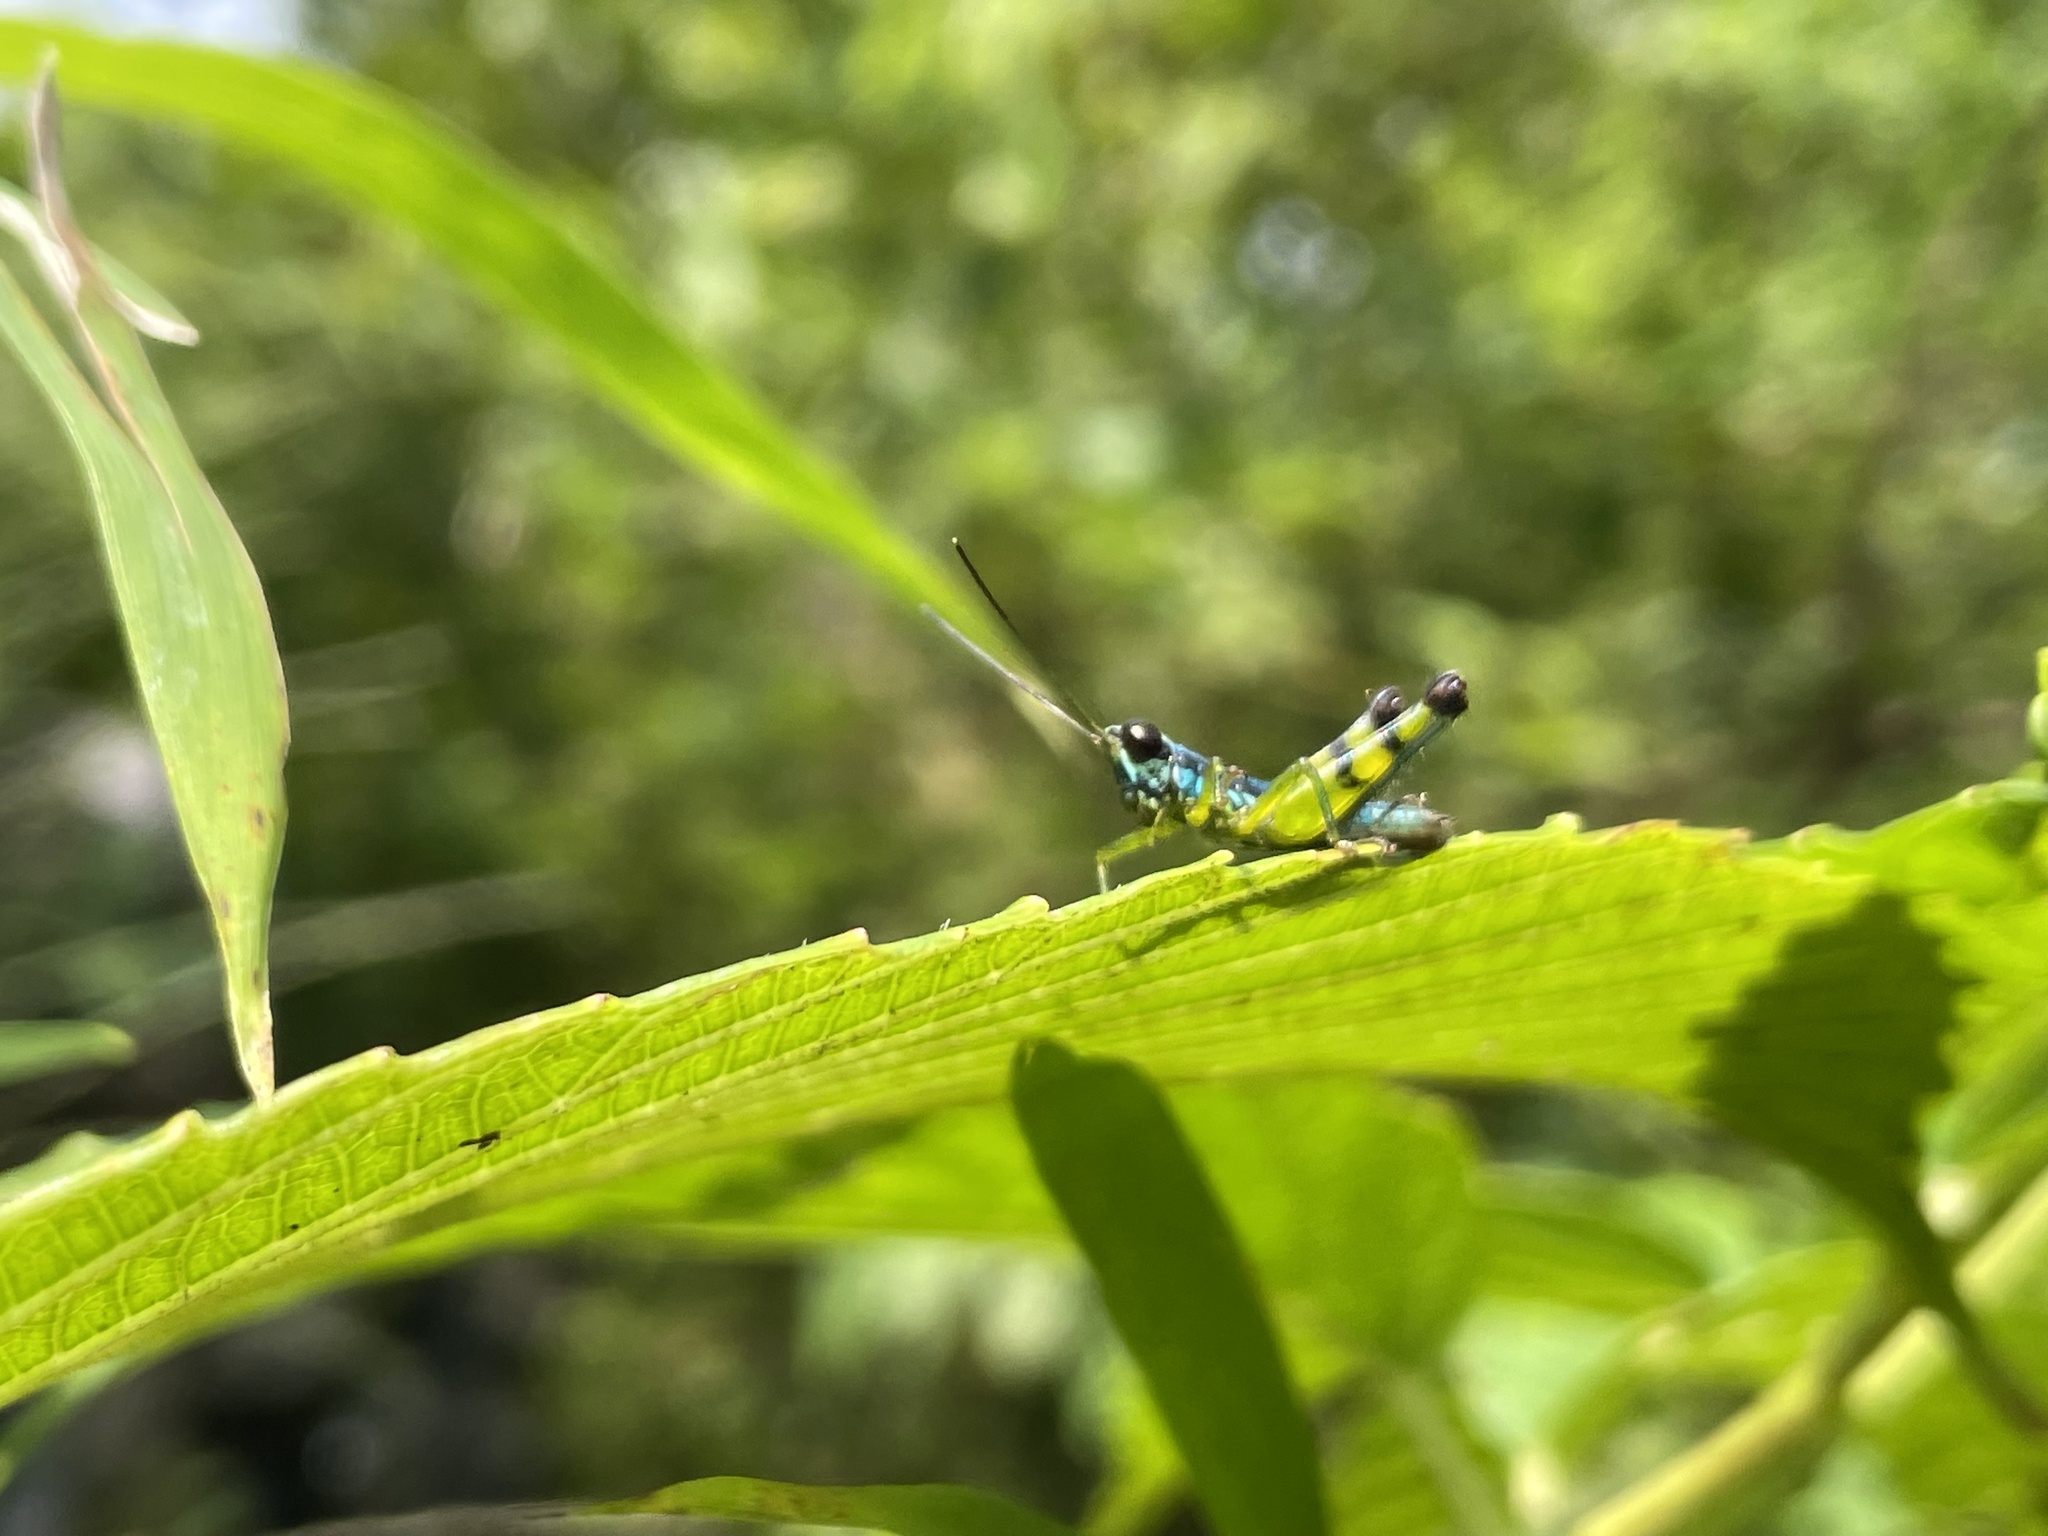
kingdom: Animalia
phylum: Arthropoda
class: Insecta
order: Orthoptera
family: Acrididae
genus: Genimen
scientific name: Genimen prasinum
